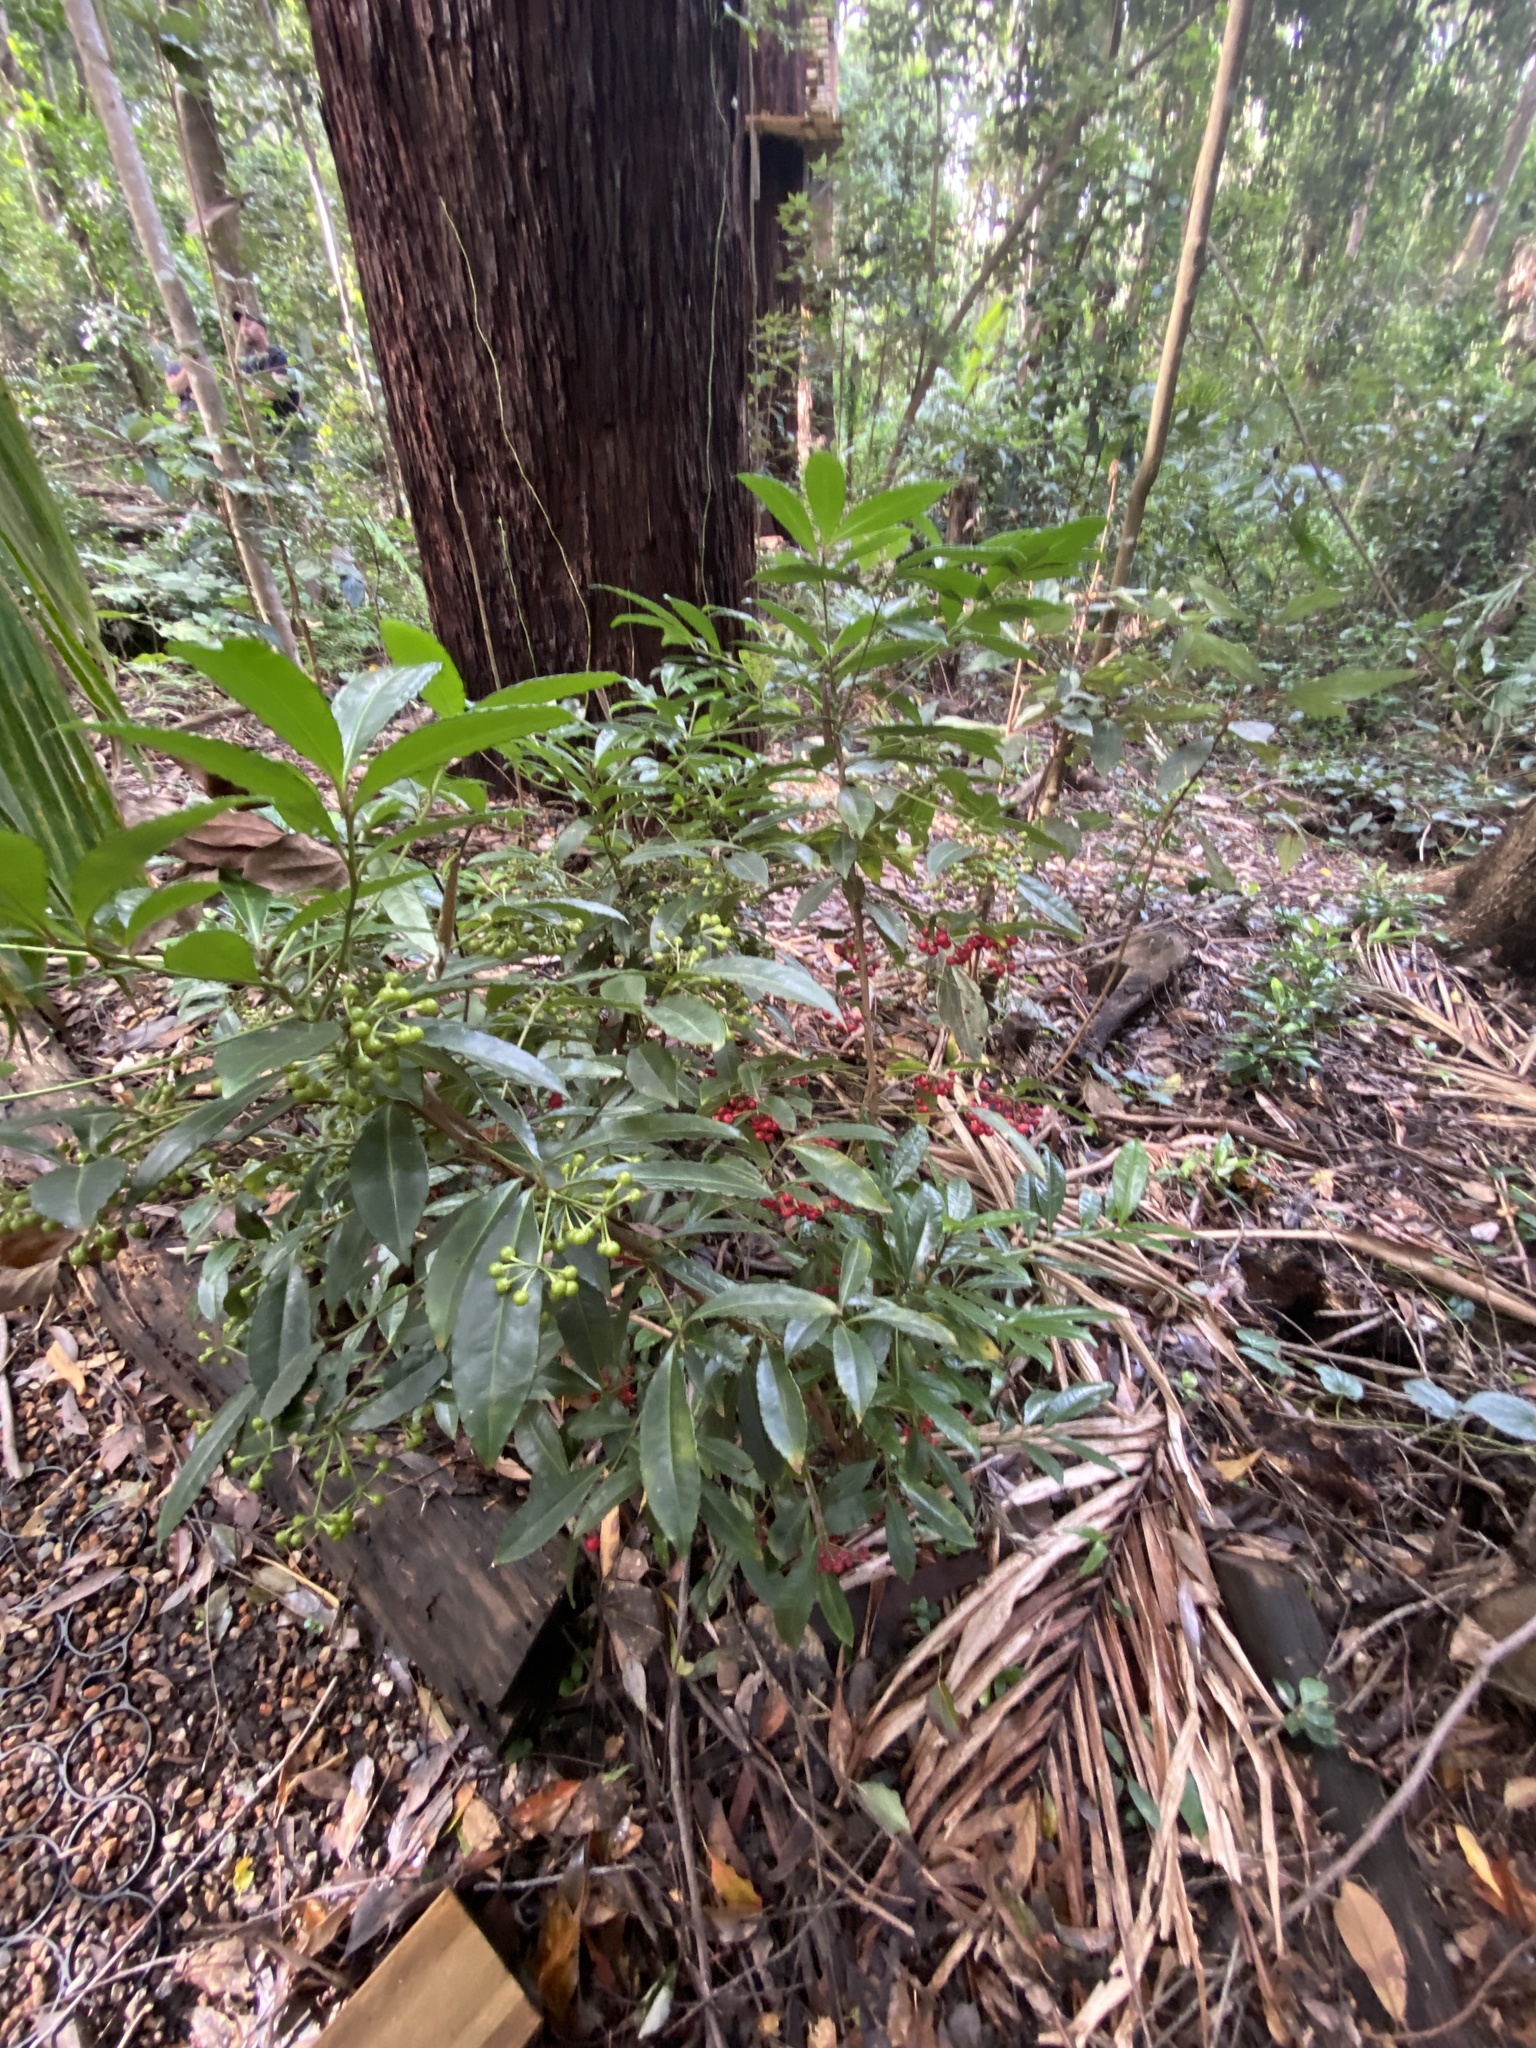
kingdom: Plantae
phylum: Tracheophyta
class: Magnoliopsida
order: Ericales
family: Primulaceae
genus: Ardisia
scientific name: Ardisia crenata
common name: Hen's eyes
